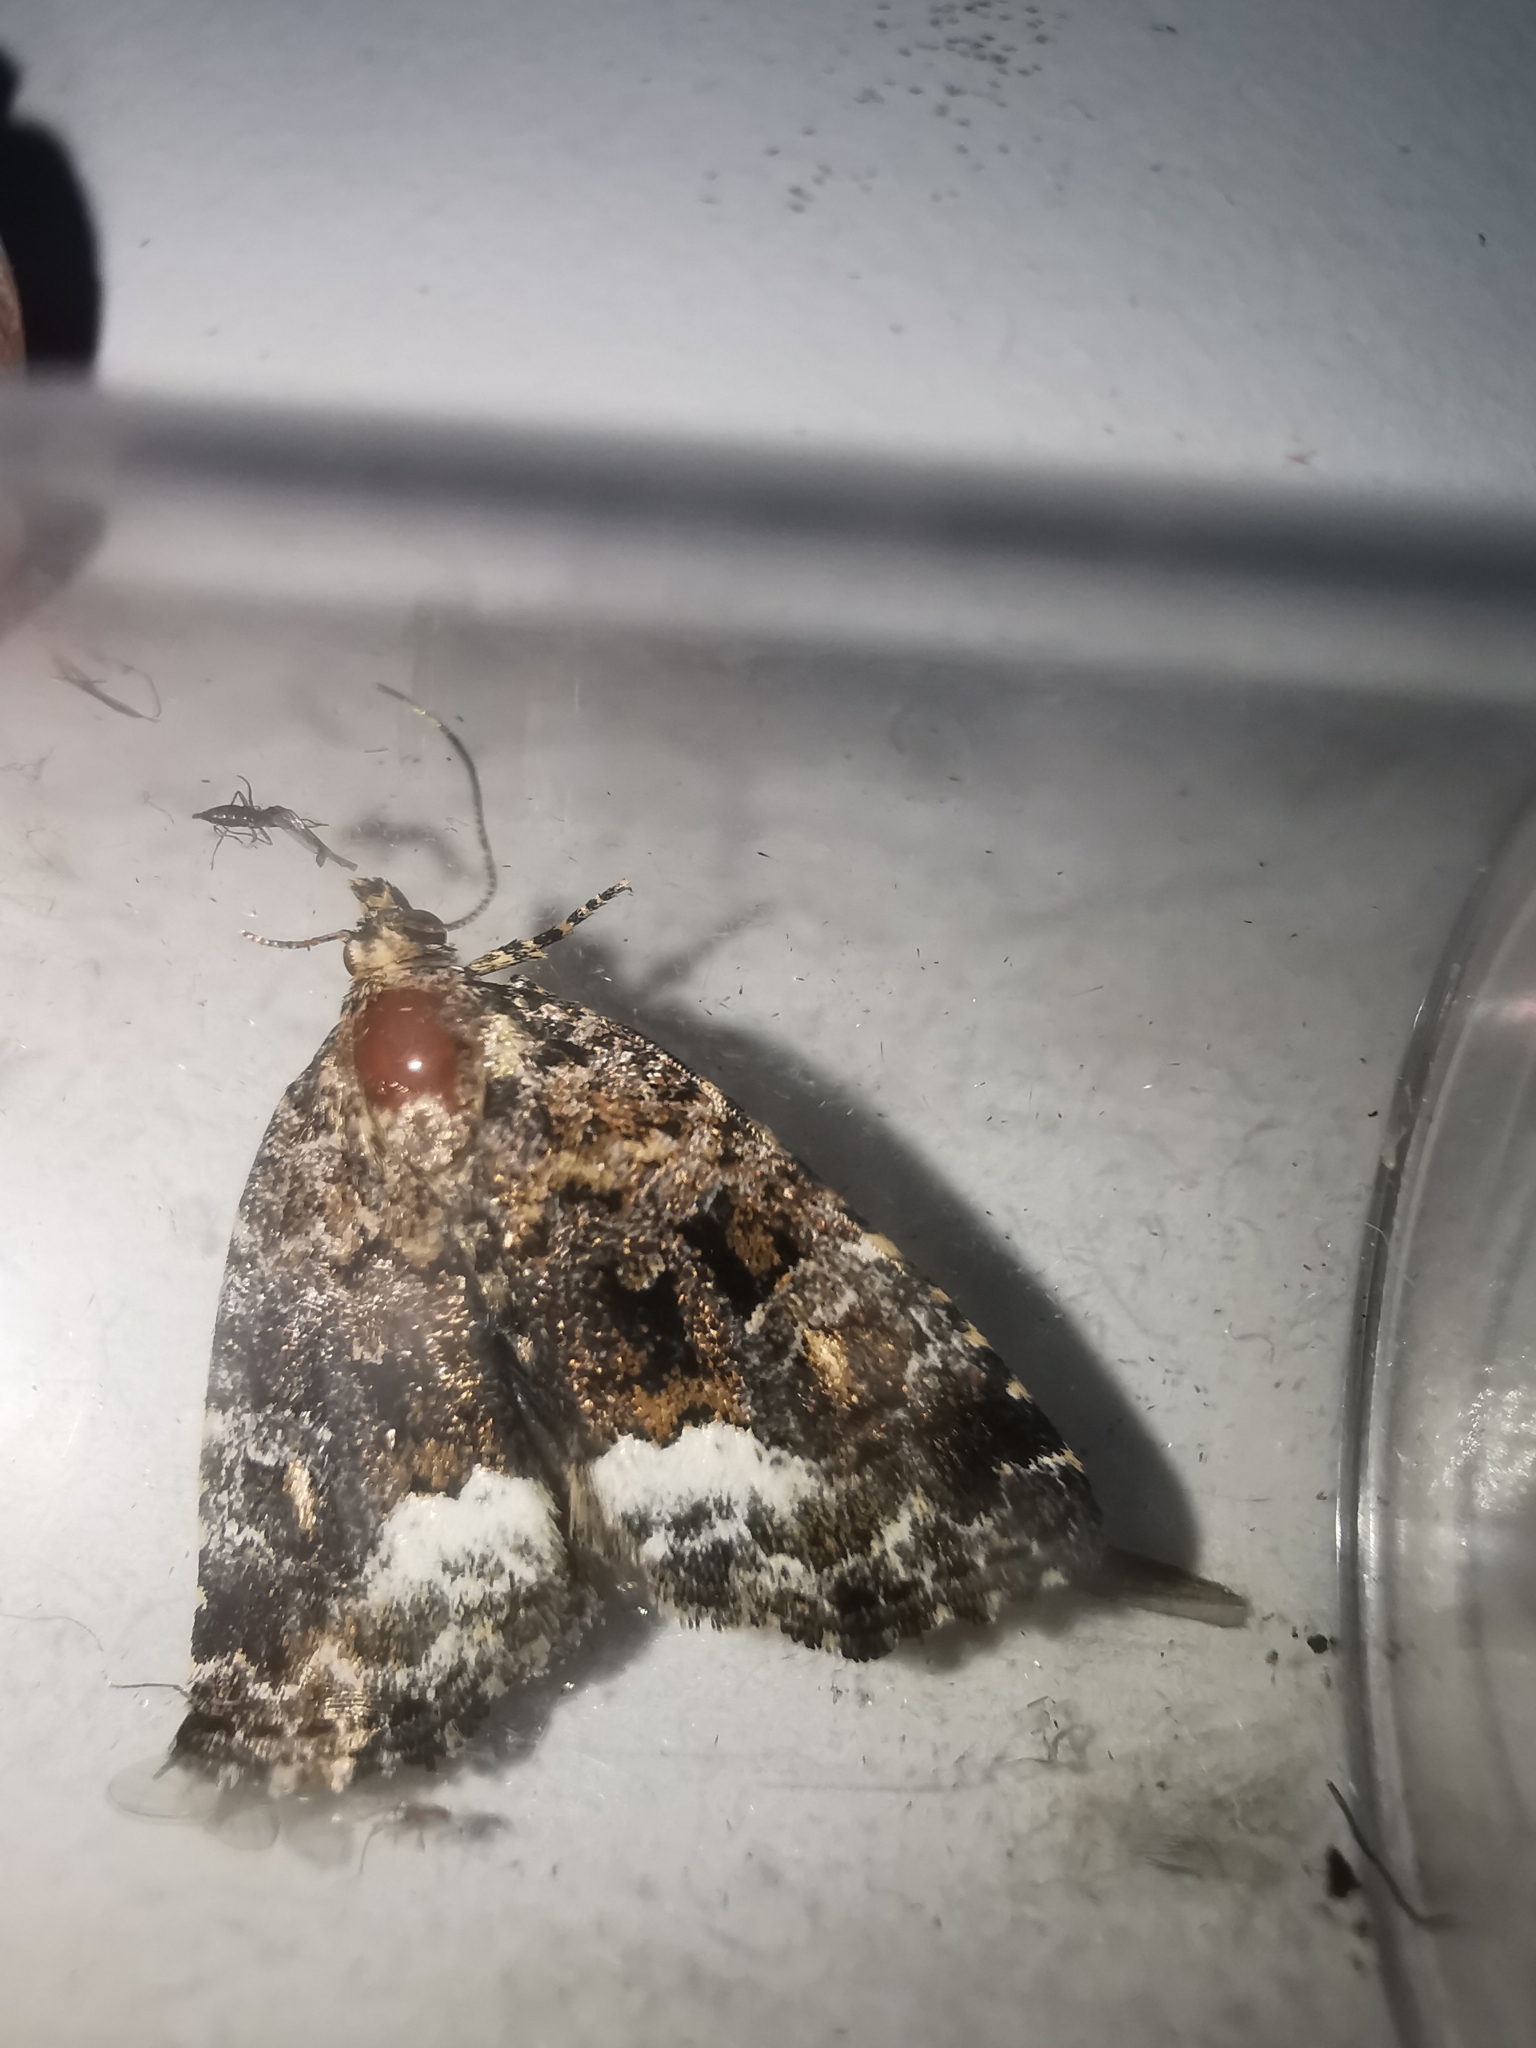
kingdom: Animalia
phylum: Arthropoda
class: Insecta
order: Lepidoptera
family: Noctuidae
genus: Deltote
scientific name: Deltote pygarga
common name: Marbled white spot
